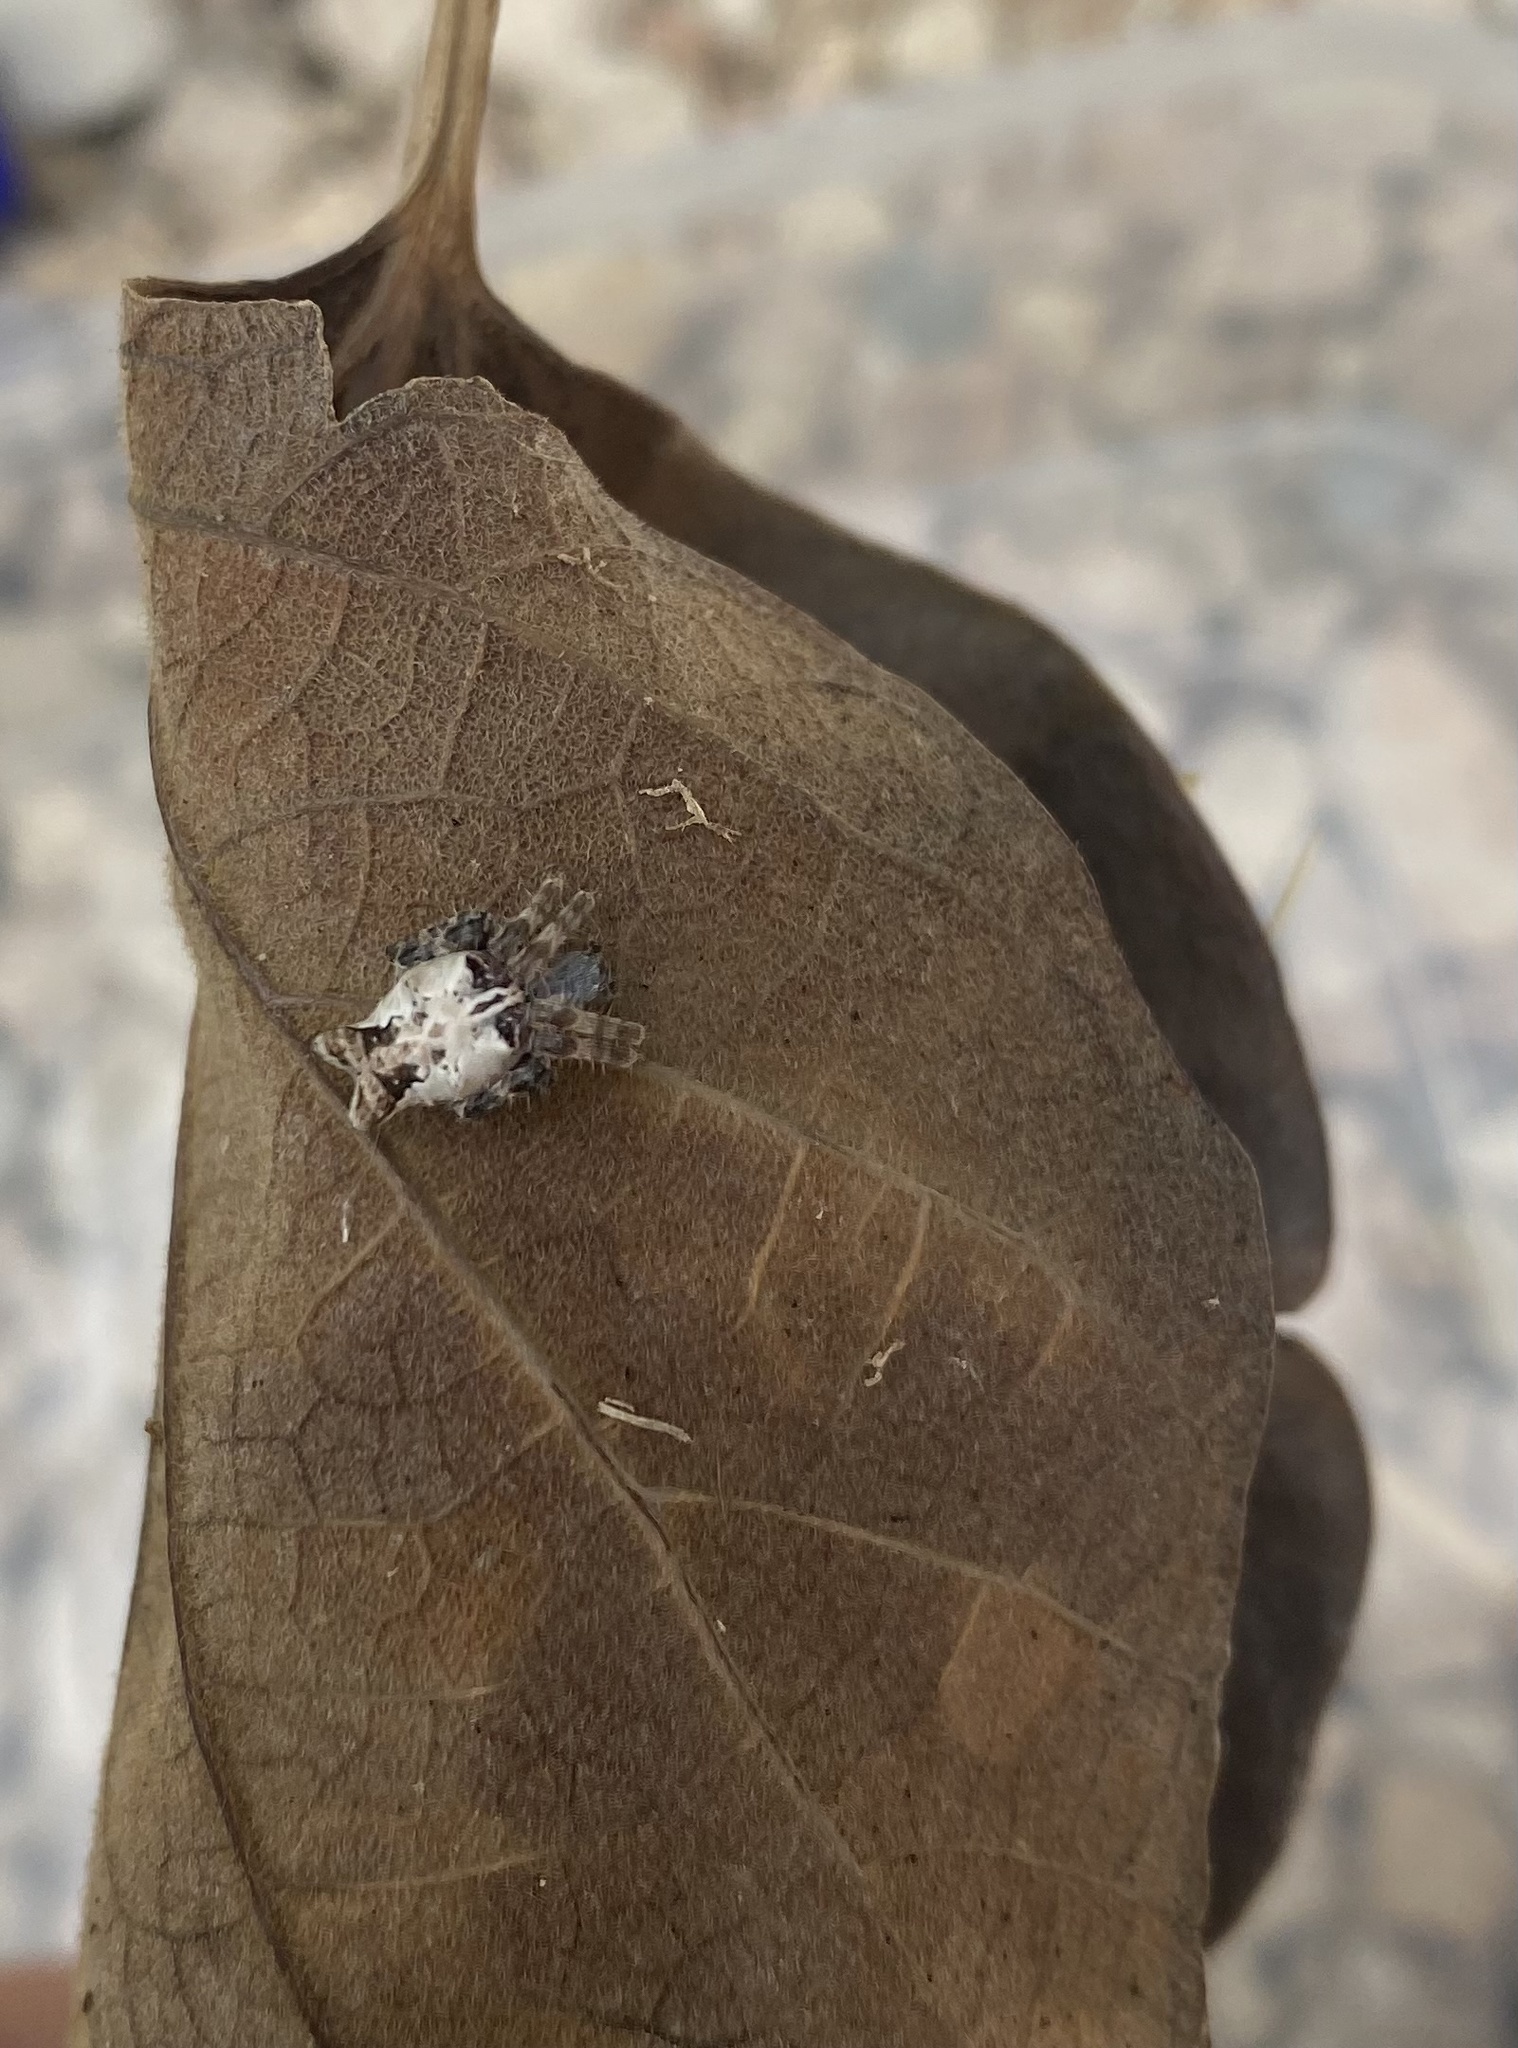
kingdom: Animalia
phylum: Arthropoda
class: Arachnida
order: Araneae
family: Araneidae
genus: Cyrtophora
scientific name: Cyrtophora citricola
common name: Orb weavers
